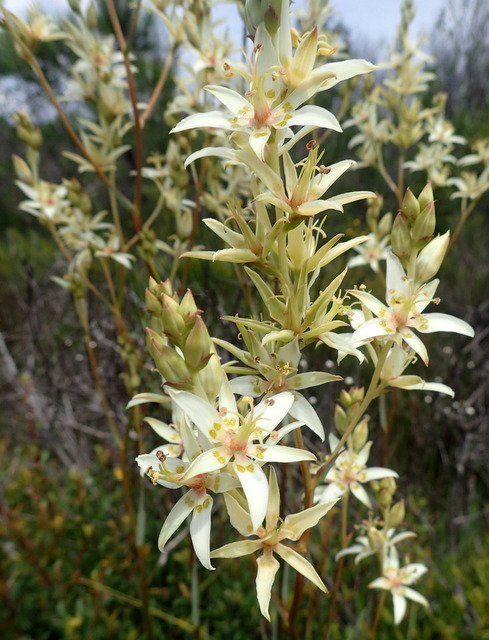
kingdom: Plantae
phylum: Tracheophyta
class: Liliopsida
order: Liliales
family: Melanthiaceae
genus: Zigadenus
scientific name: Zigadenus glaberrimus
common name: Sandbog death camas
